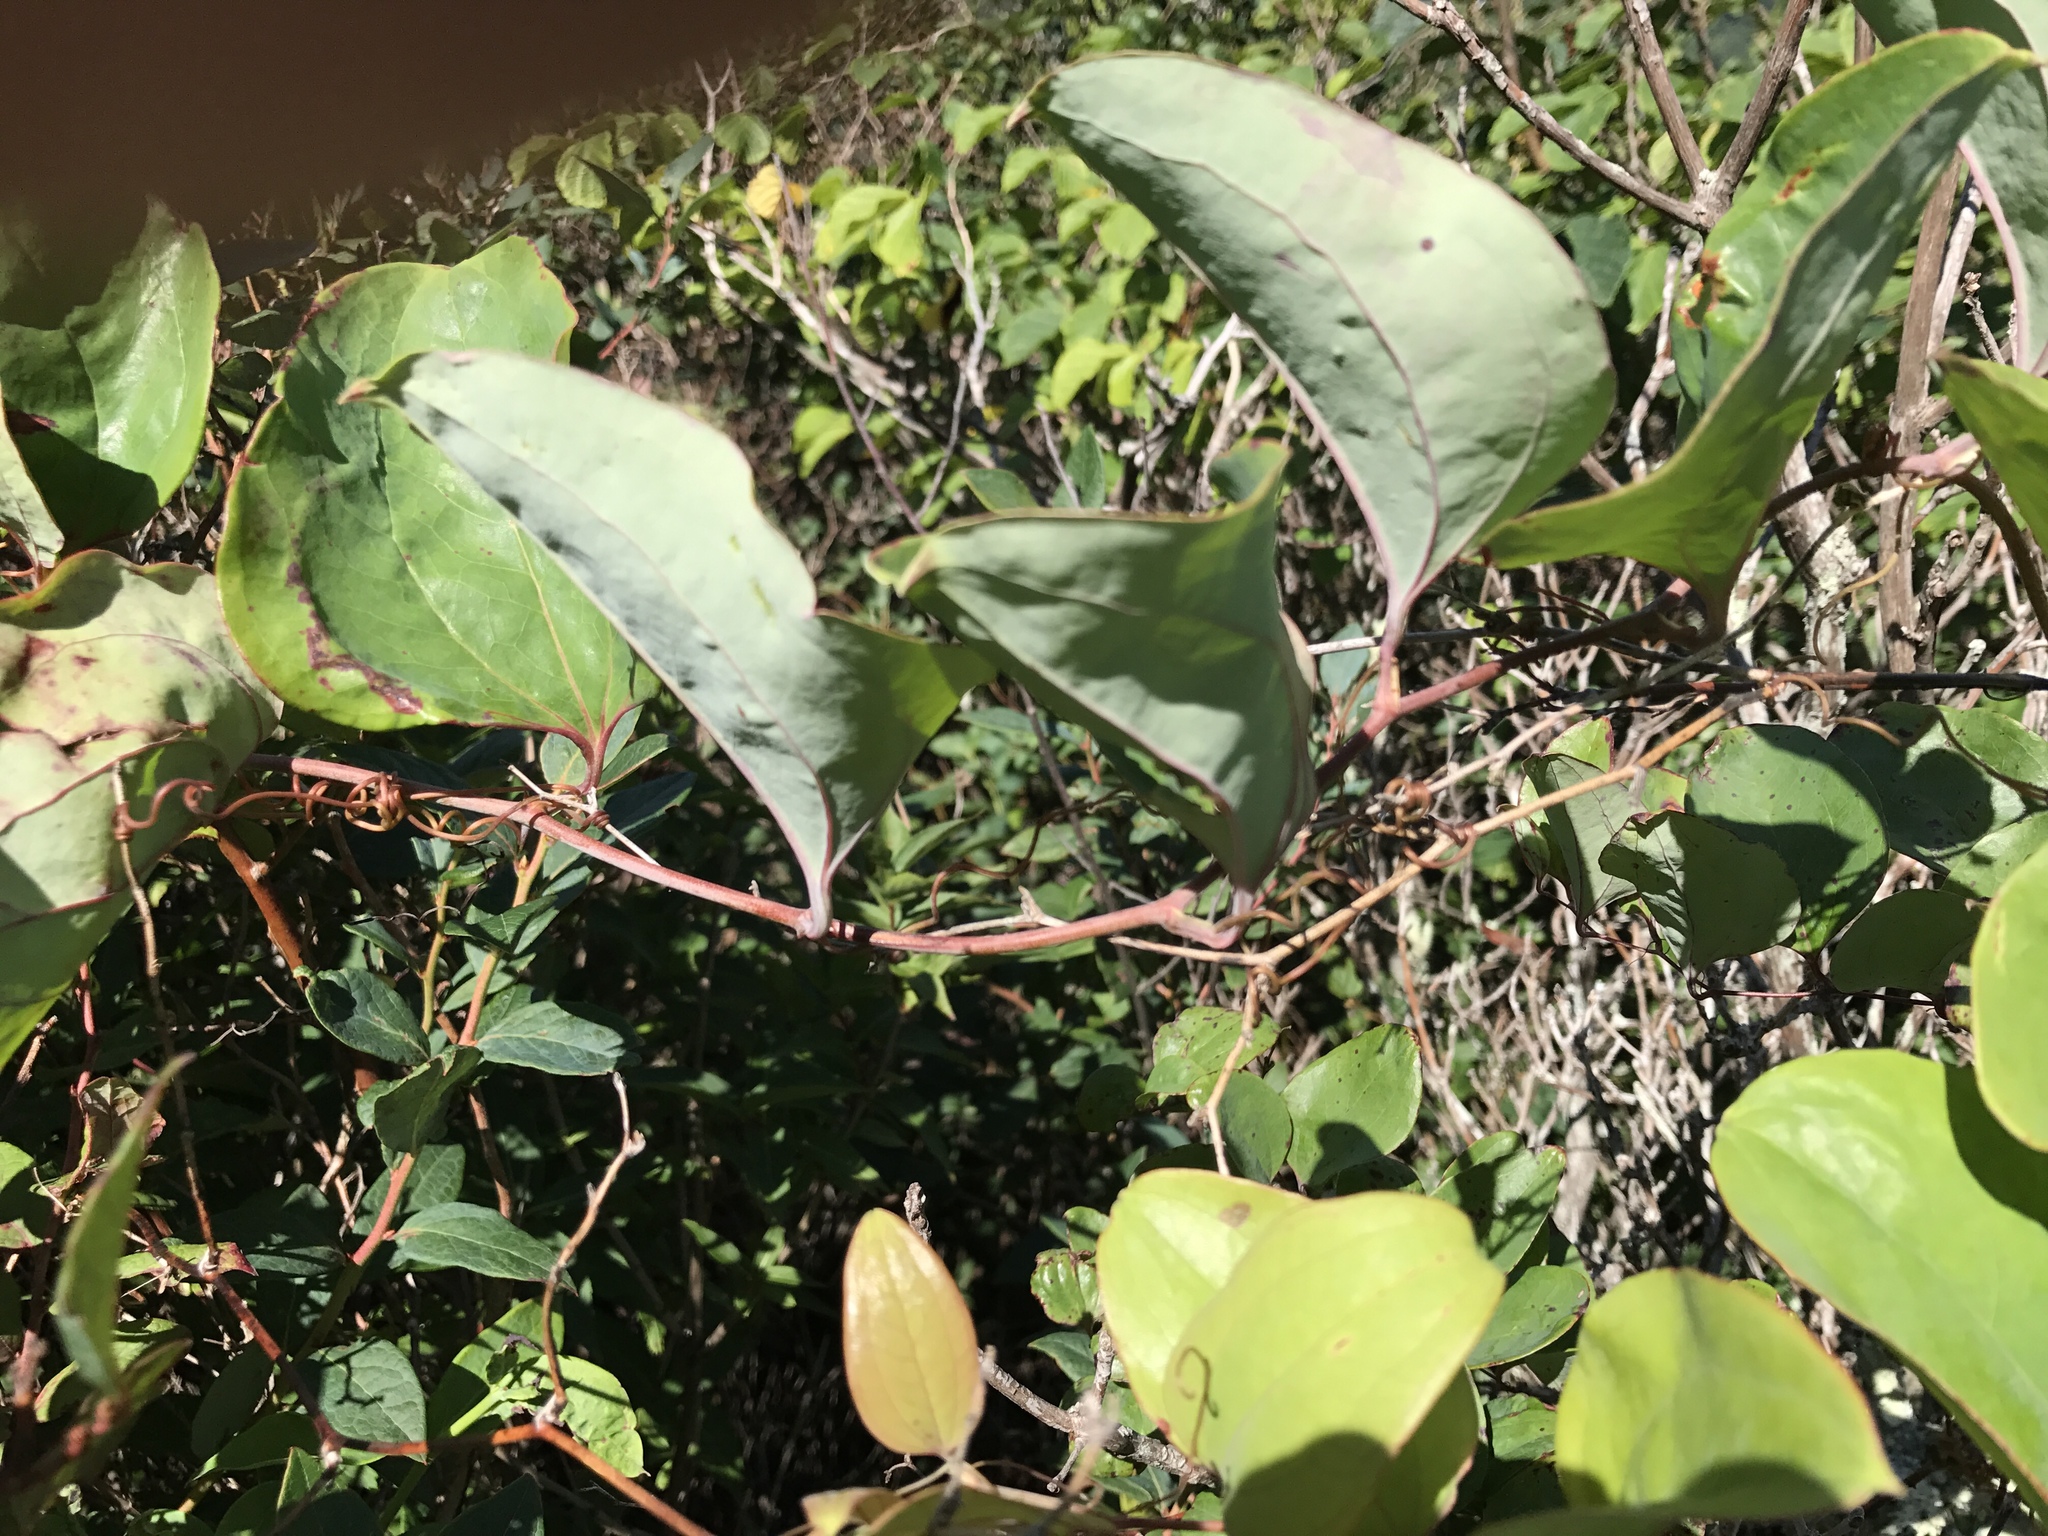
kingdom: Plantae
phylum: Tracheophyta
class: Liliopsida
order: Liliales
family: Smilacaceae
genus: Smilax
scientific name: Smilax glauca
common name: Cat greenbrier
